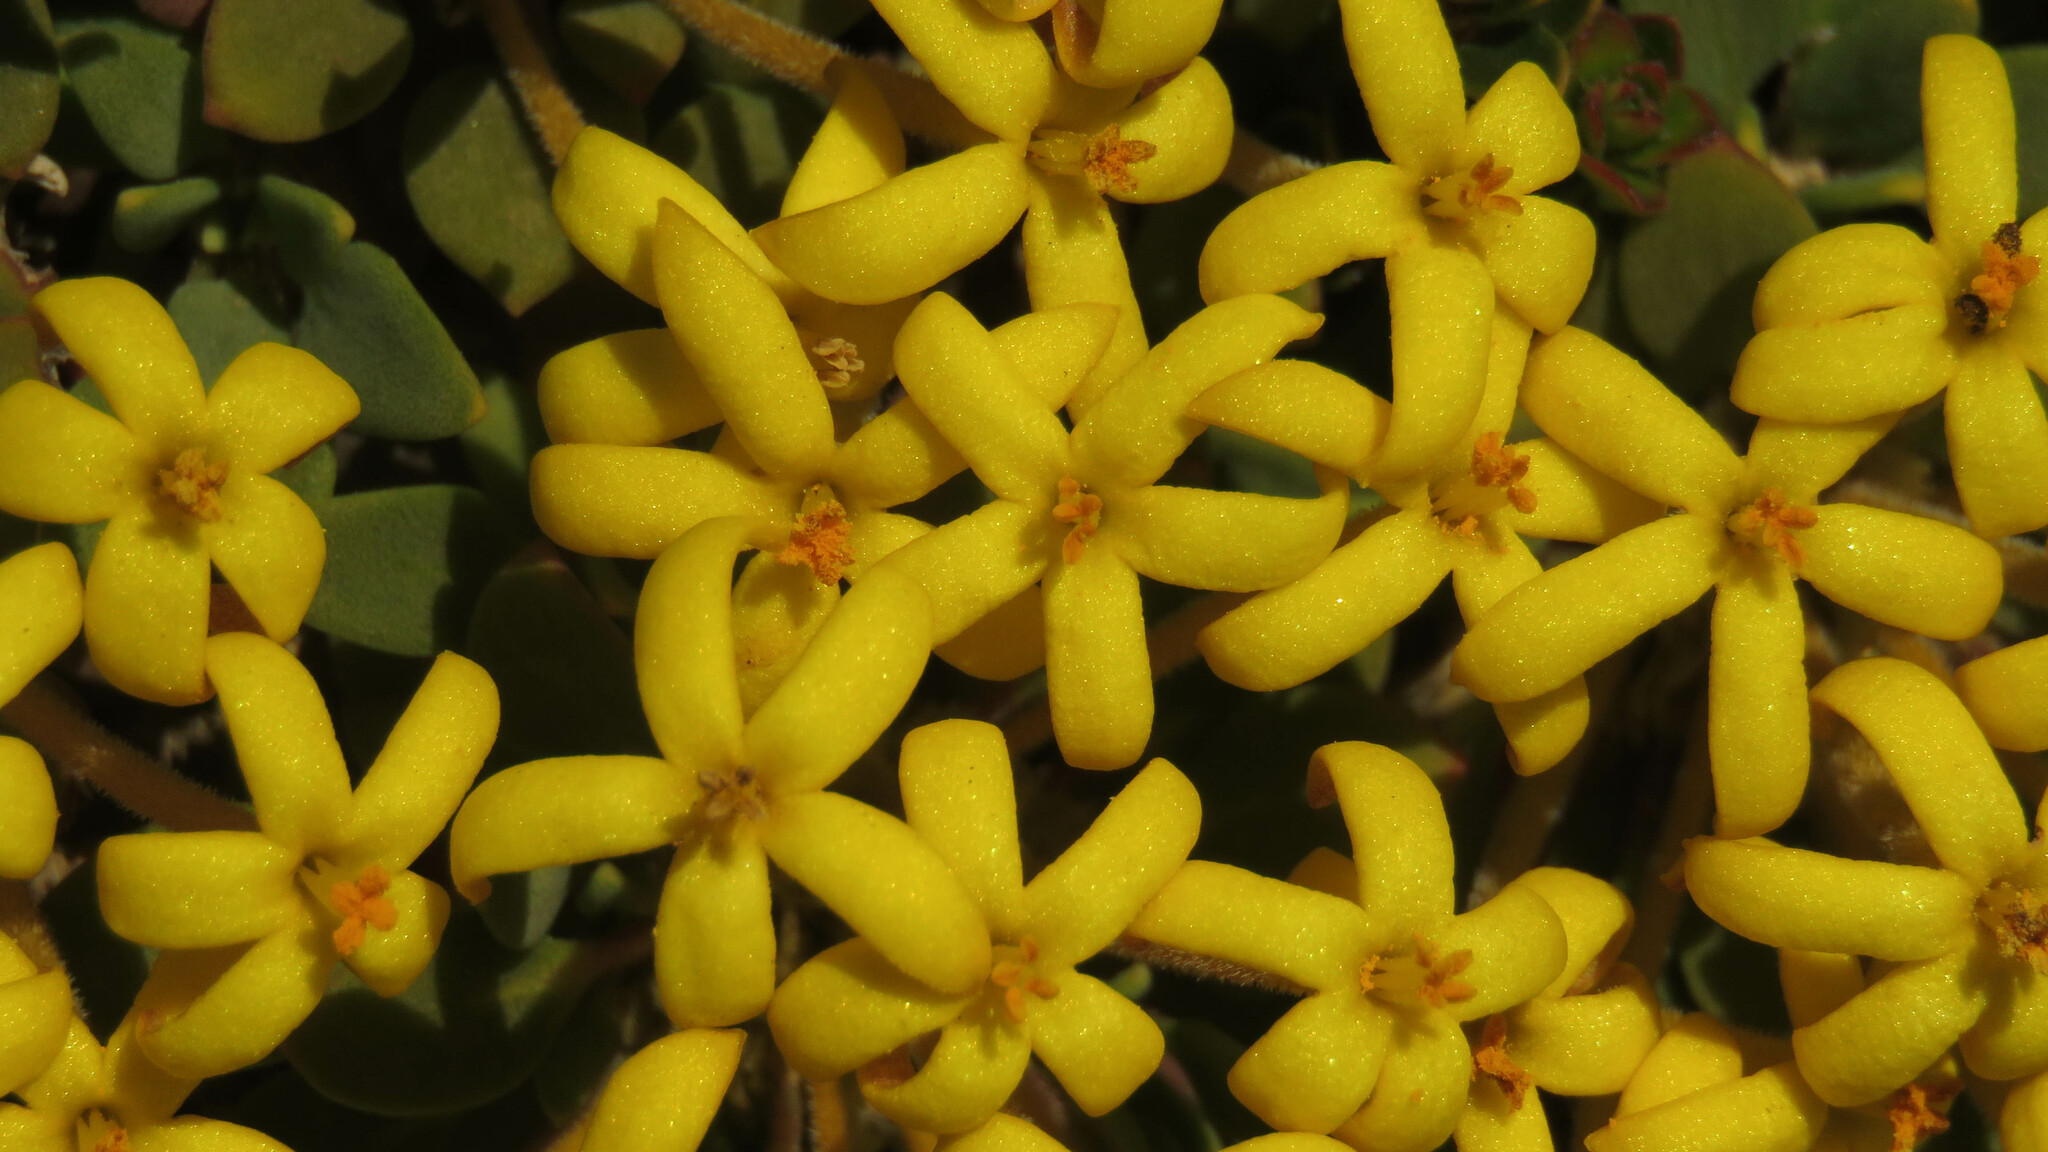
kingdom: Plantae
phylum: Tracheophyta
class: Magnoliopsida
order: Gentianales
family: Rubiaceae
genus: Oreopolus
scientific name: Oreopolus glacialis
